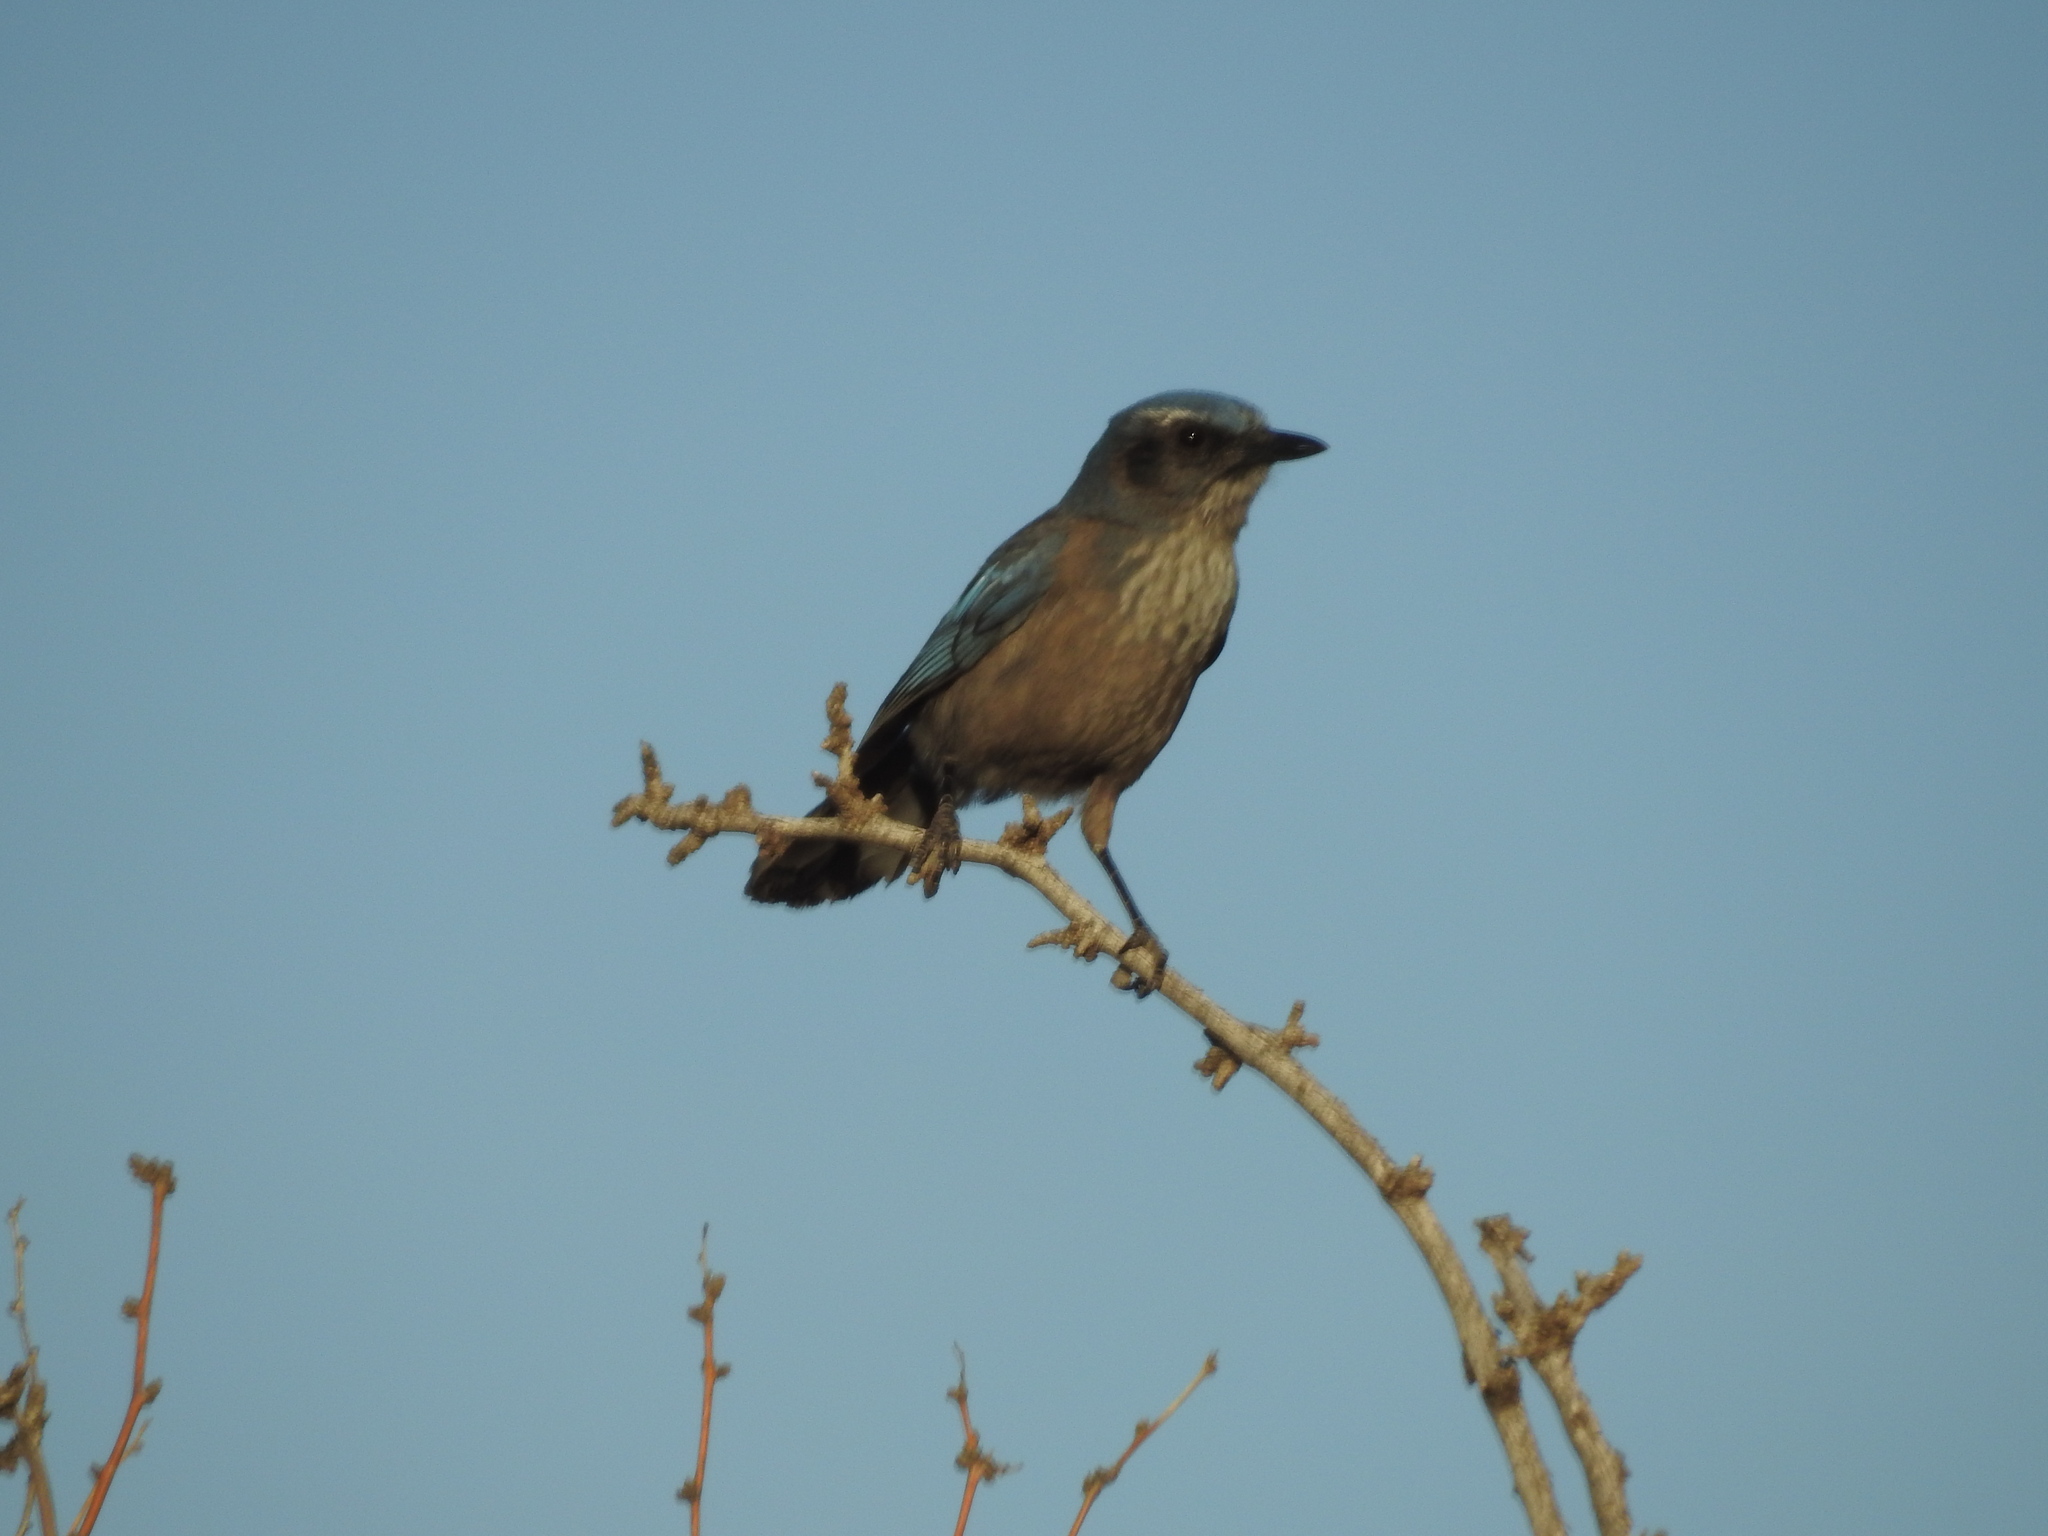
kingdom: Animalia
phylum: Chordata
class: Aves
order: Passeriformes
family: Corvidae
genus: Aphelocoma
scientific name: Aphelocoma woodhouseii
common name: Woodhouse's scrub-jay
